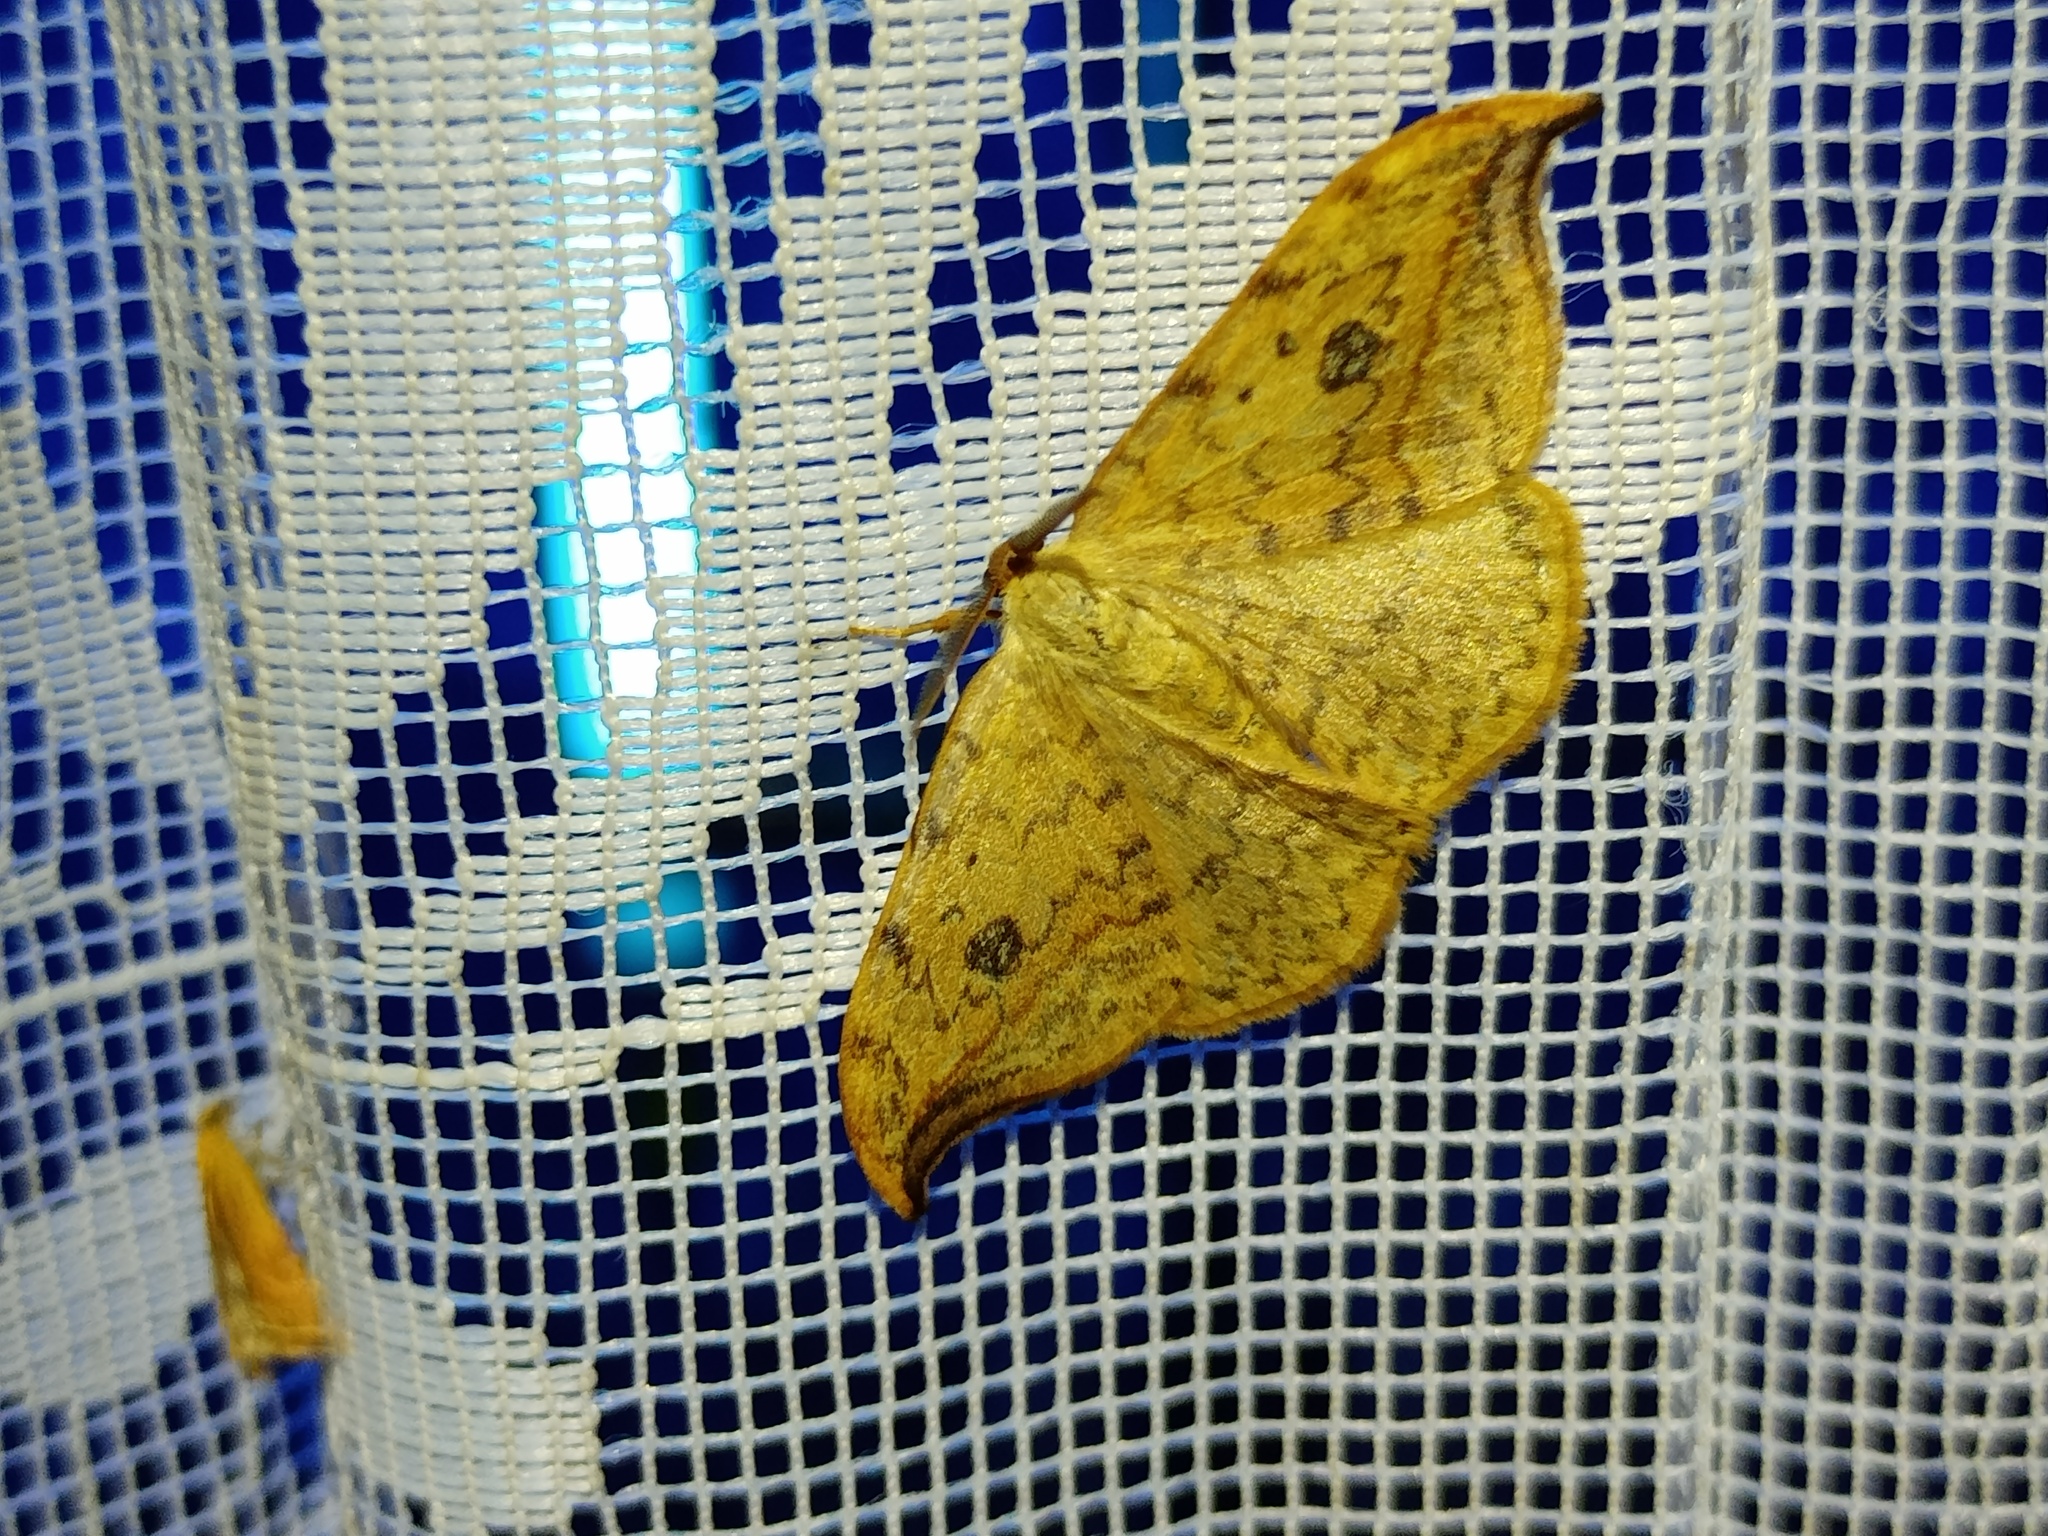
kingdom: Animalia
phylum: Arthropoda
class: Insecta
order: Lepidoptera
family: Drepanidae
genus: Drepana
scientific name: Drepana falcataria
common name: Pebble hook-tip
